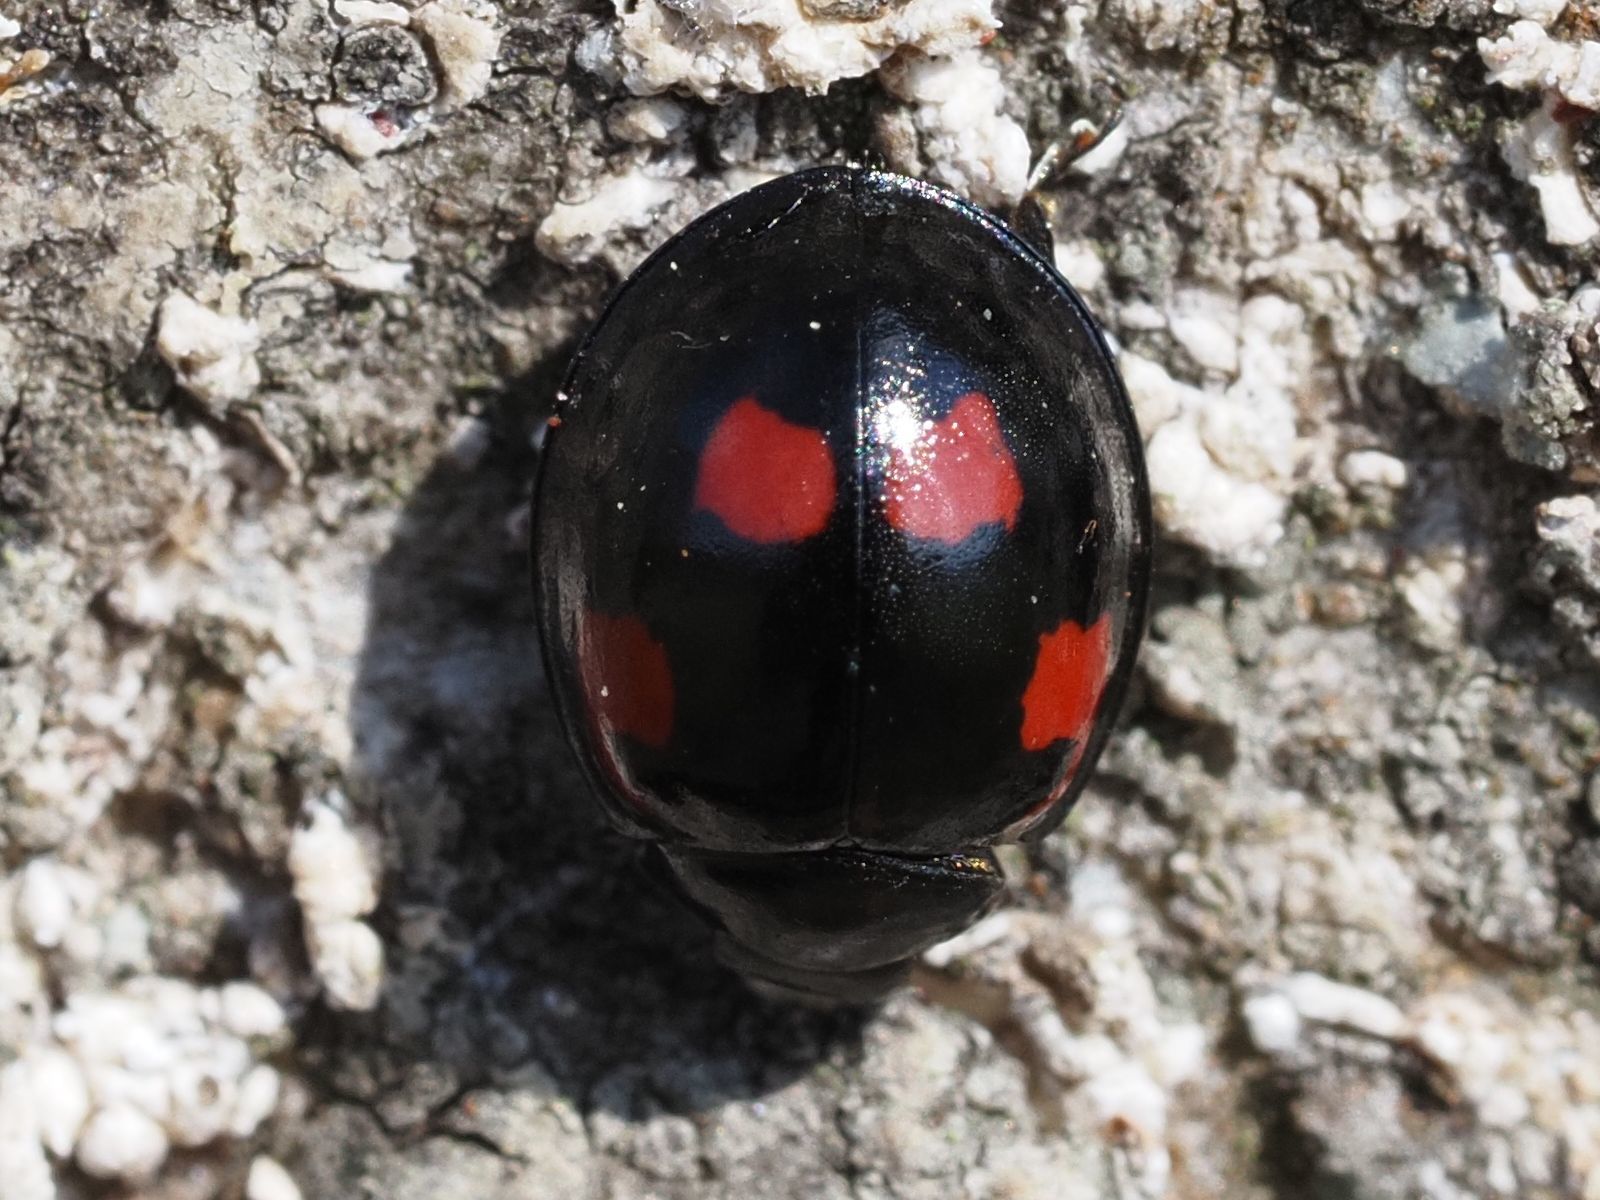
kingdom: Animalia
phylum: Arthropoda
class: Insecta
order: Coleoptera
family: Coccinellidae
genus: Brumus
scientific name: Brumus quadripustulatus
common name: Ladybird beetle
